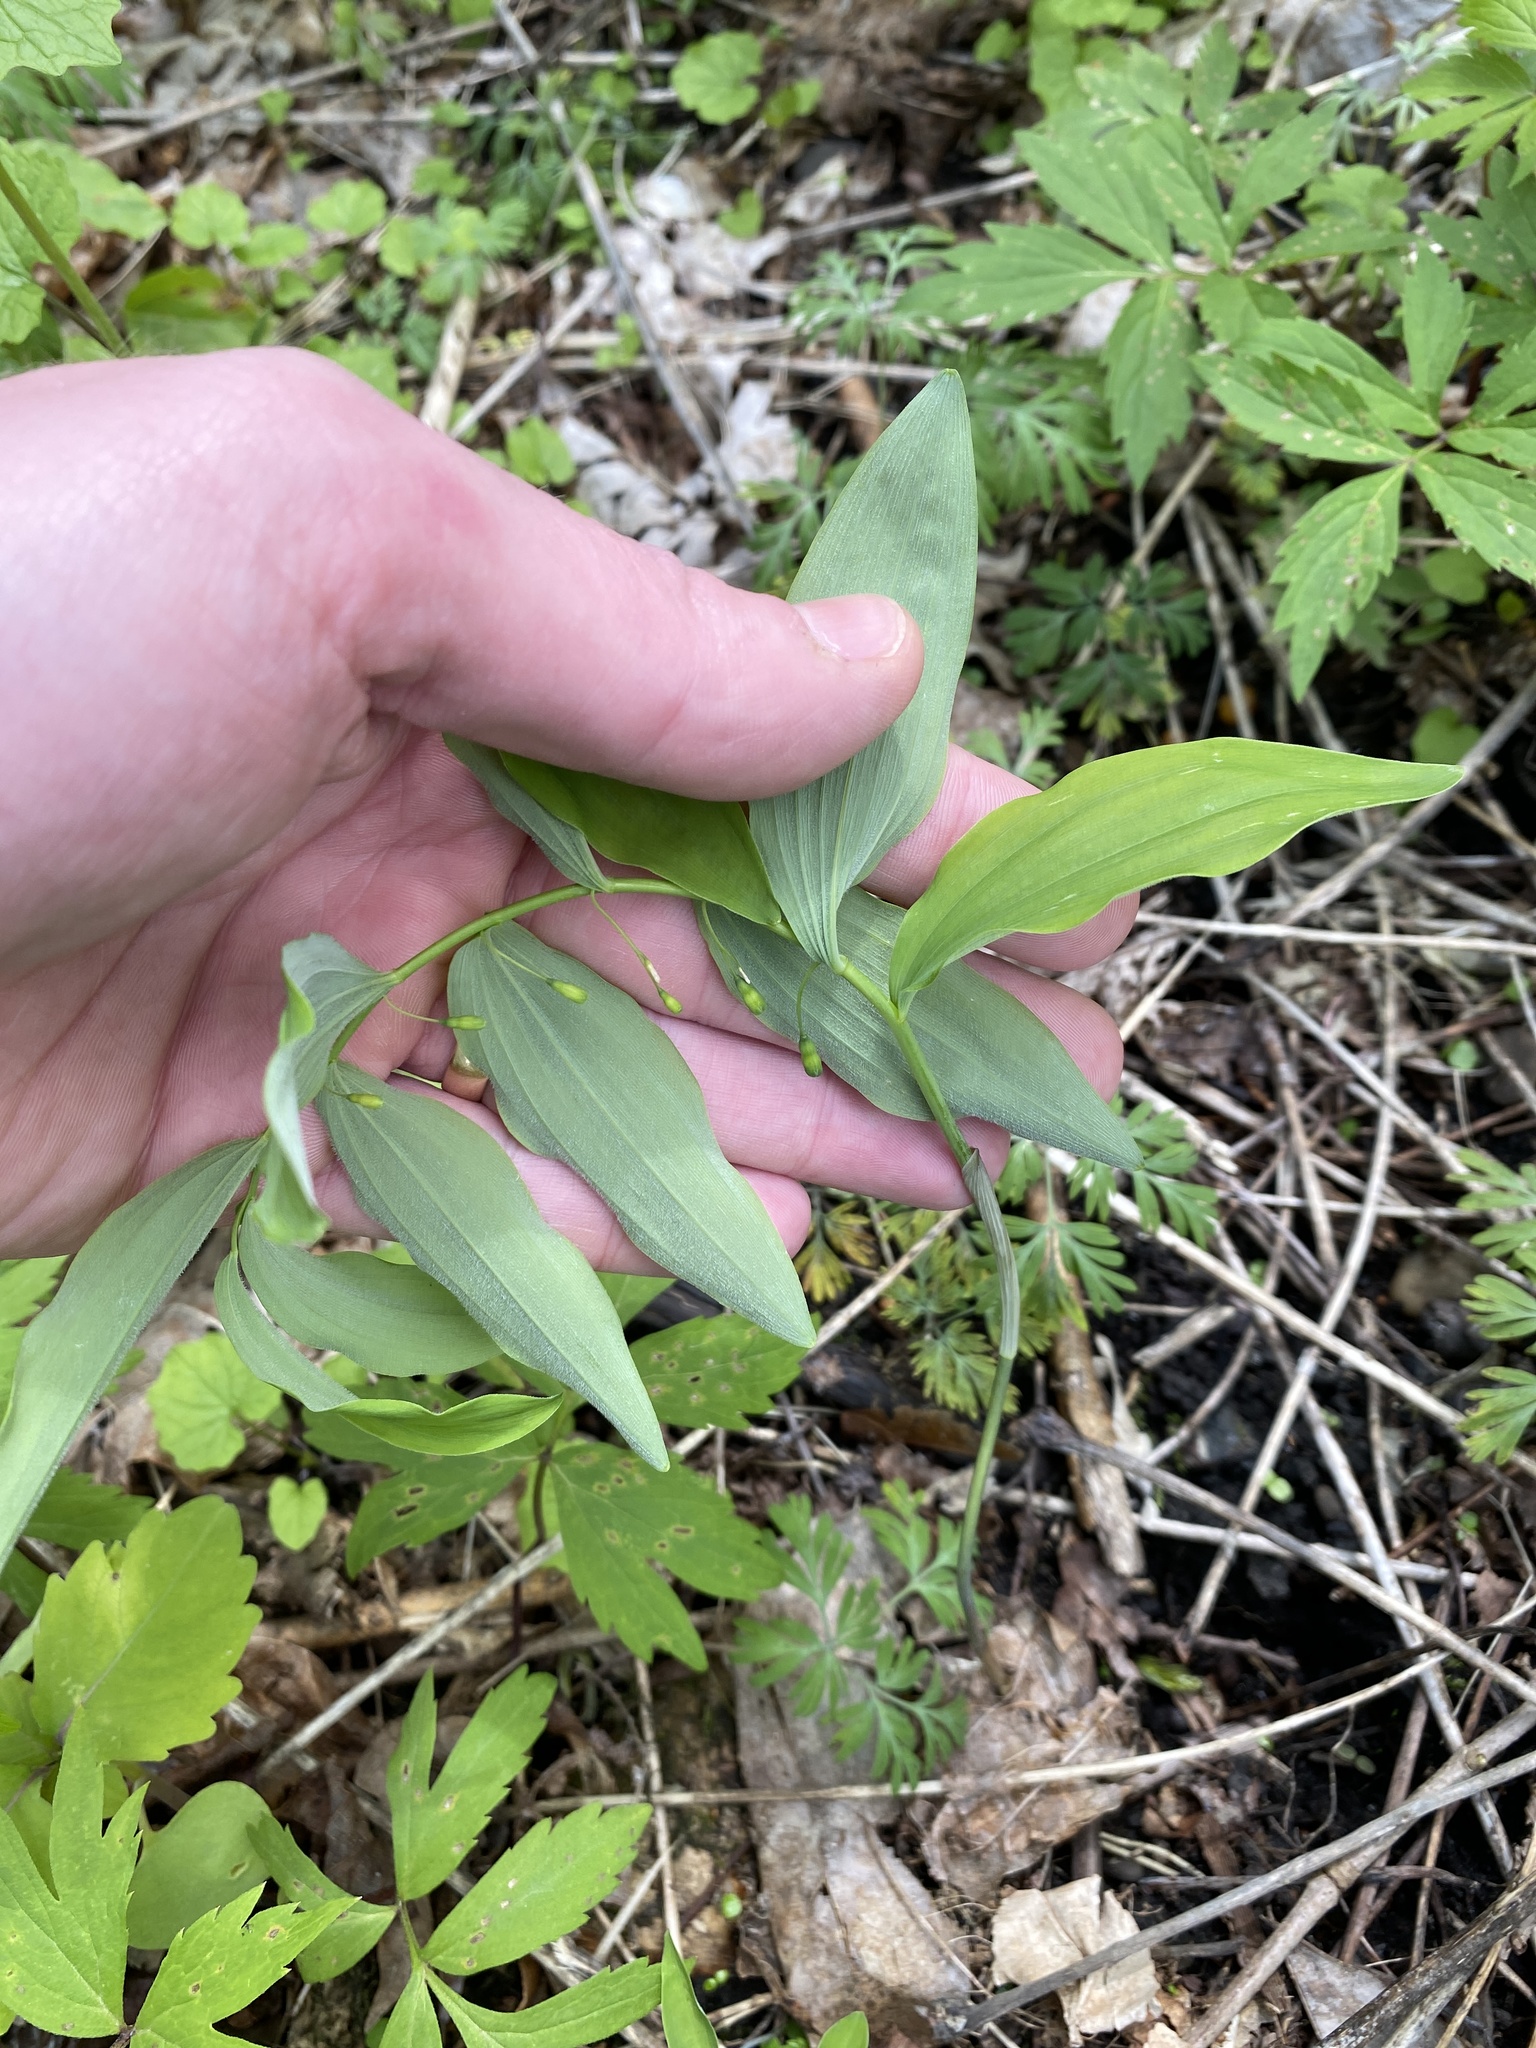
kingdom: Plantae
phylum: Tracheophyta
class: Liliopsida
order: Asparagales
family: Asparagaceae
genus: Polygonatum
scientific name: Polygonatum pubescens
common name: Downy solomon's seal
